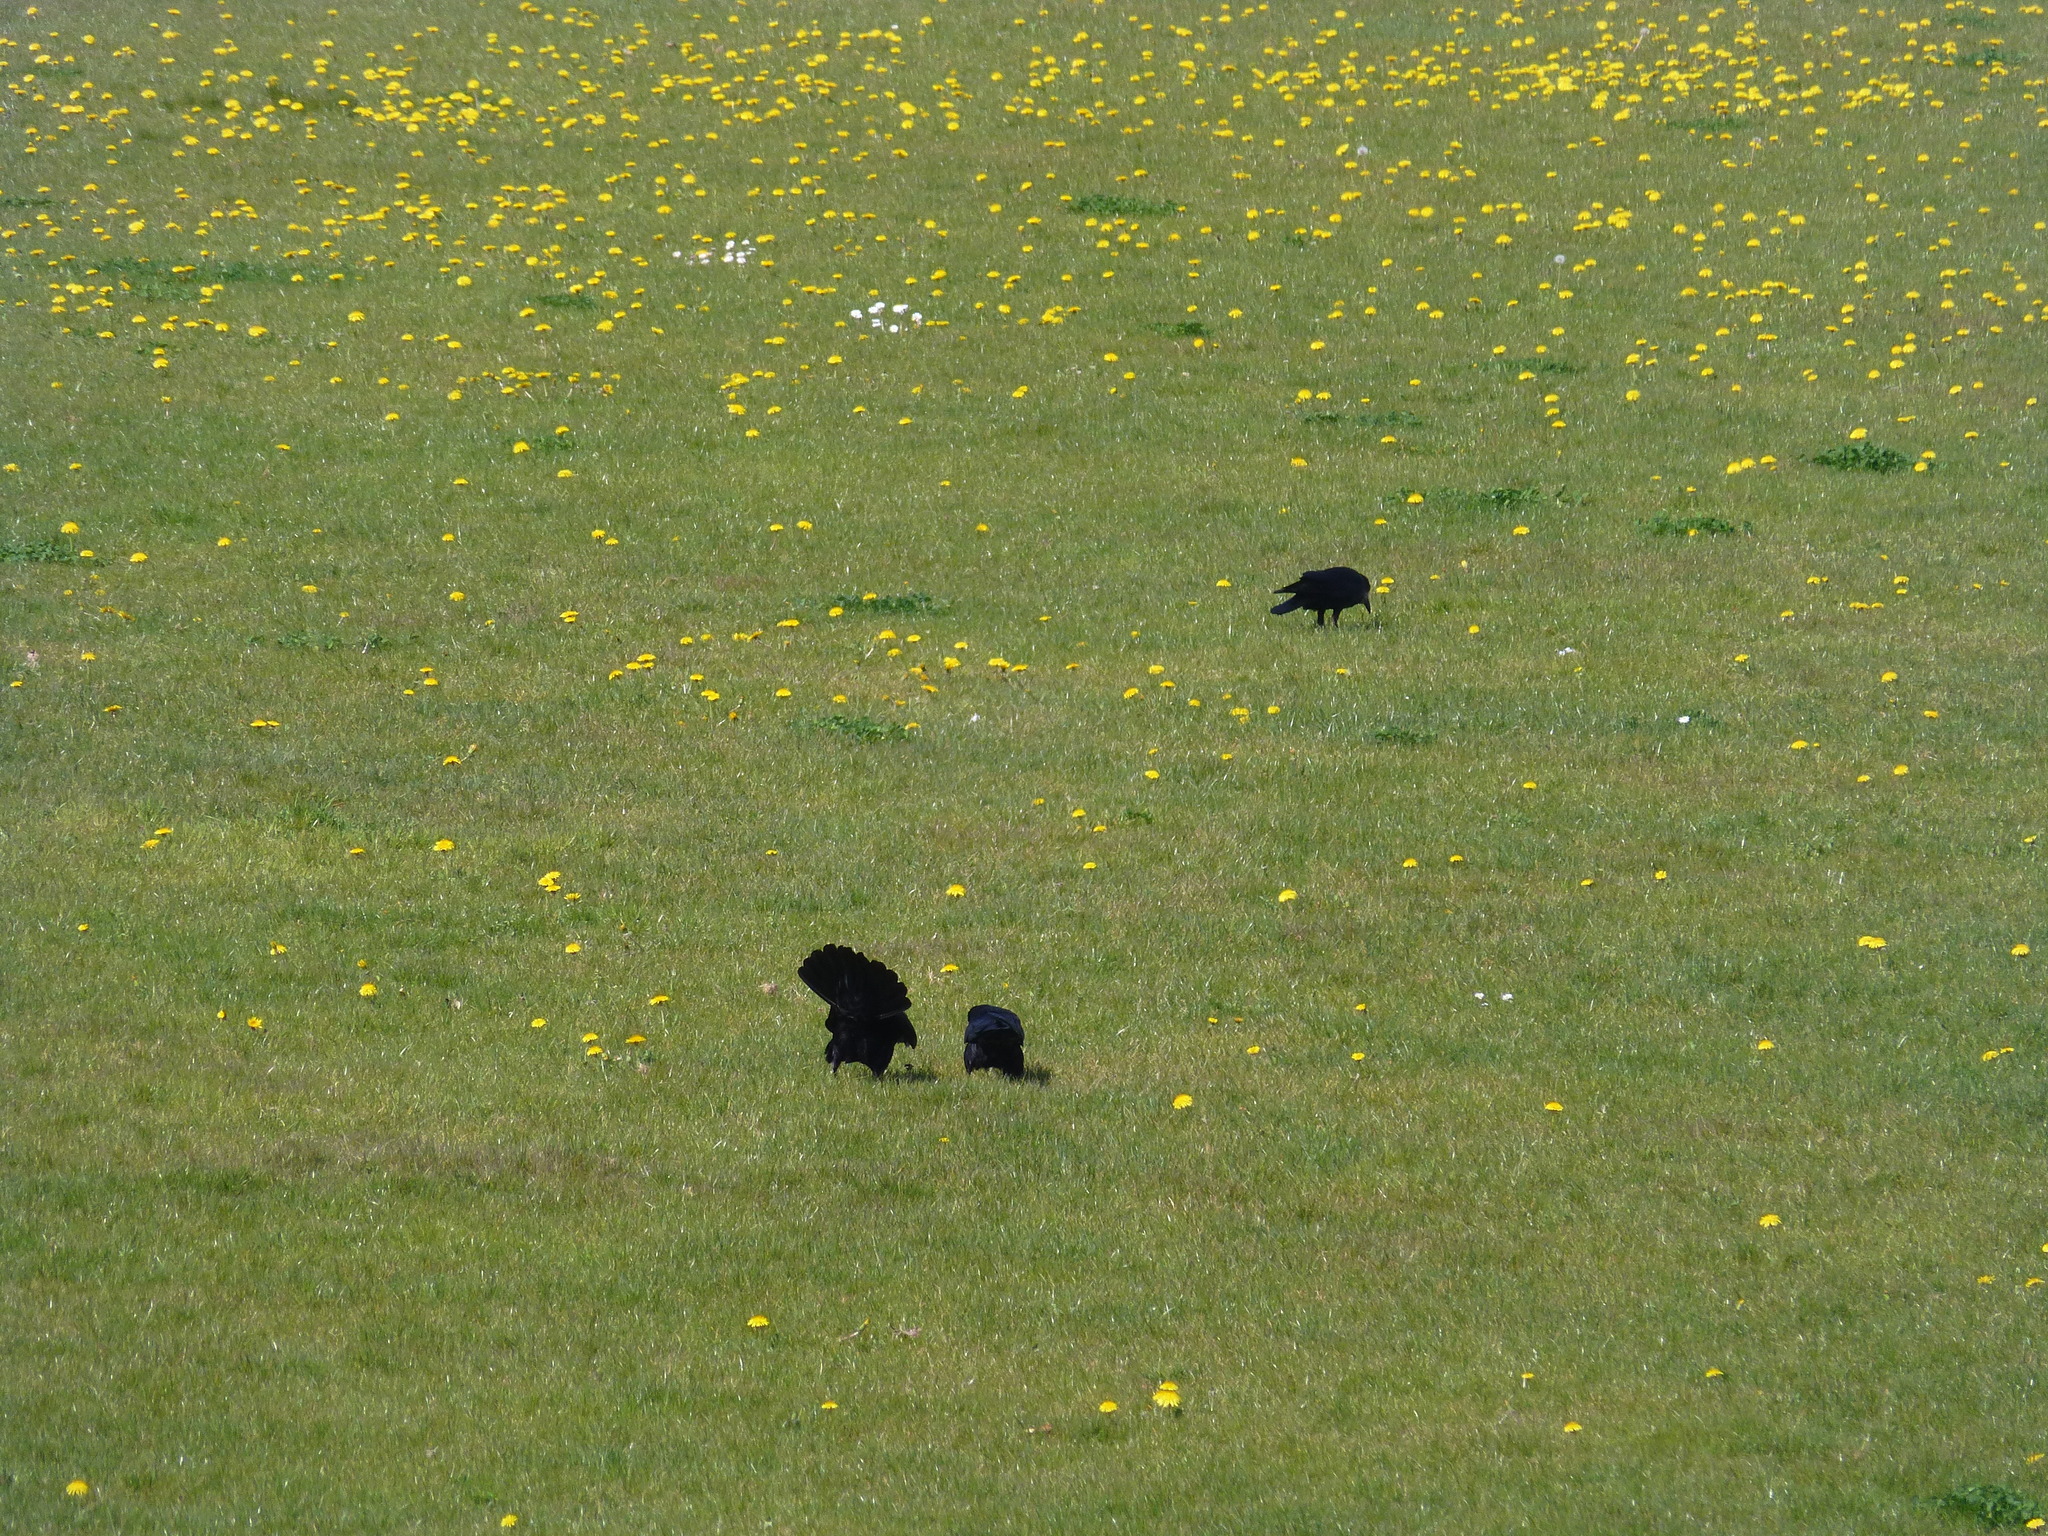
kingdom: Animalia
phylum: Chordata
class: Aves
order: Passeriformes
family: Corvidae
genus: Corvus
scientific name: Corvus frugilegus
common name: Rook
